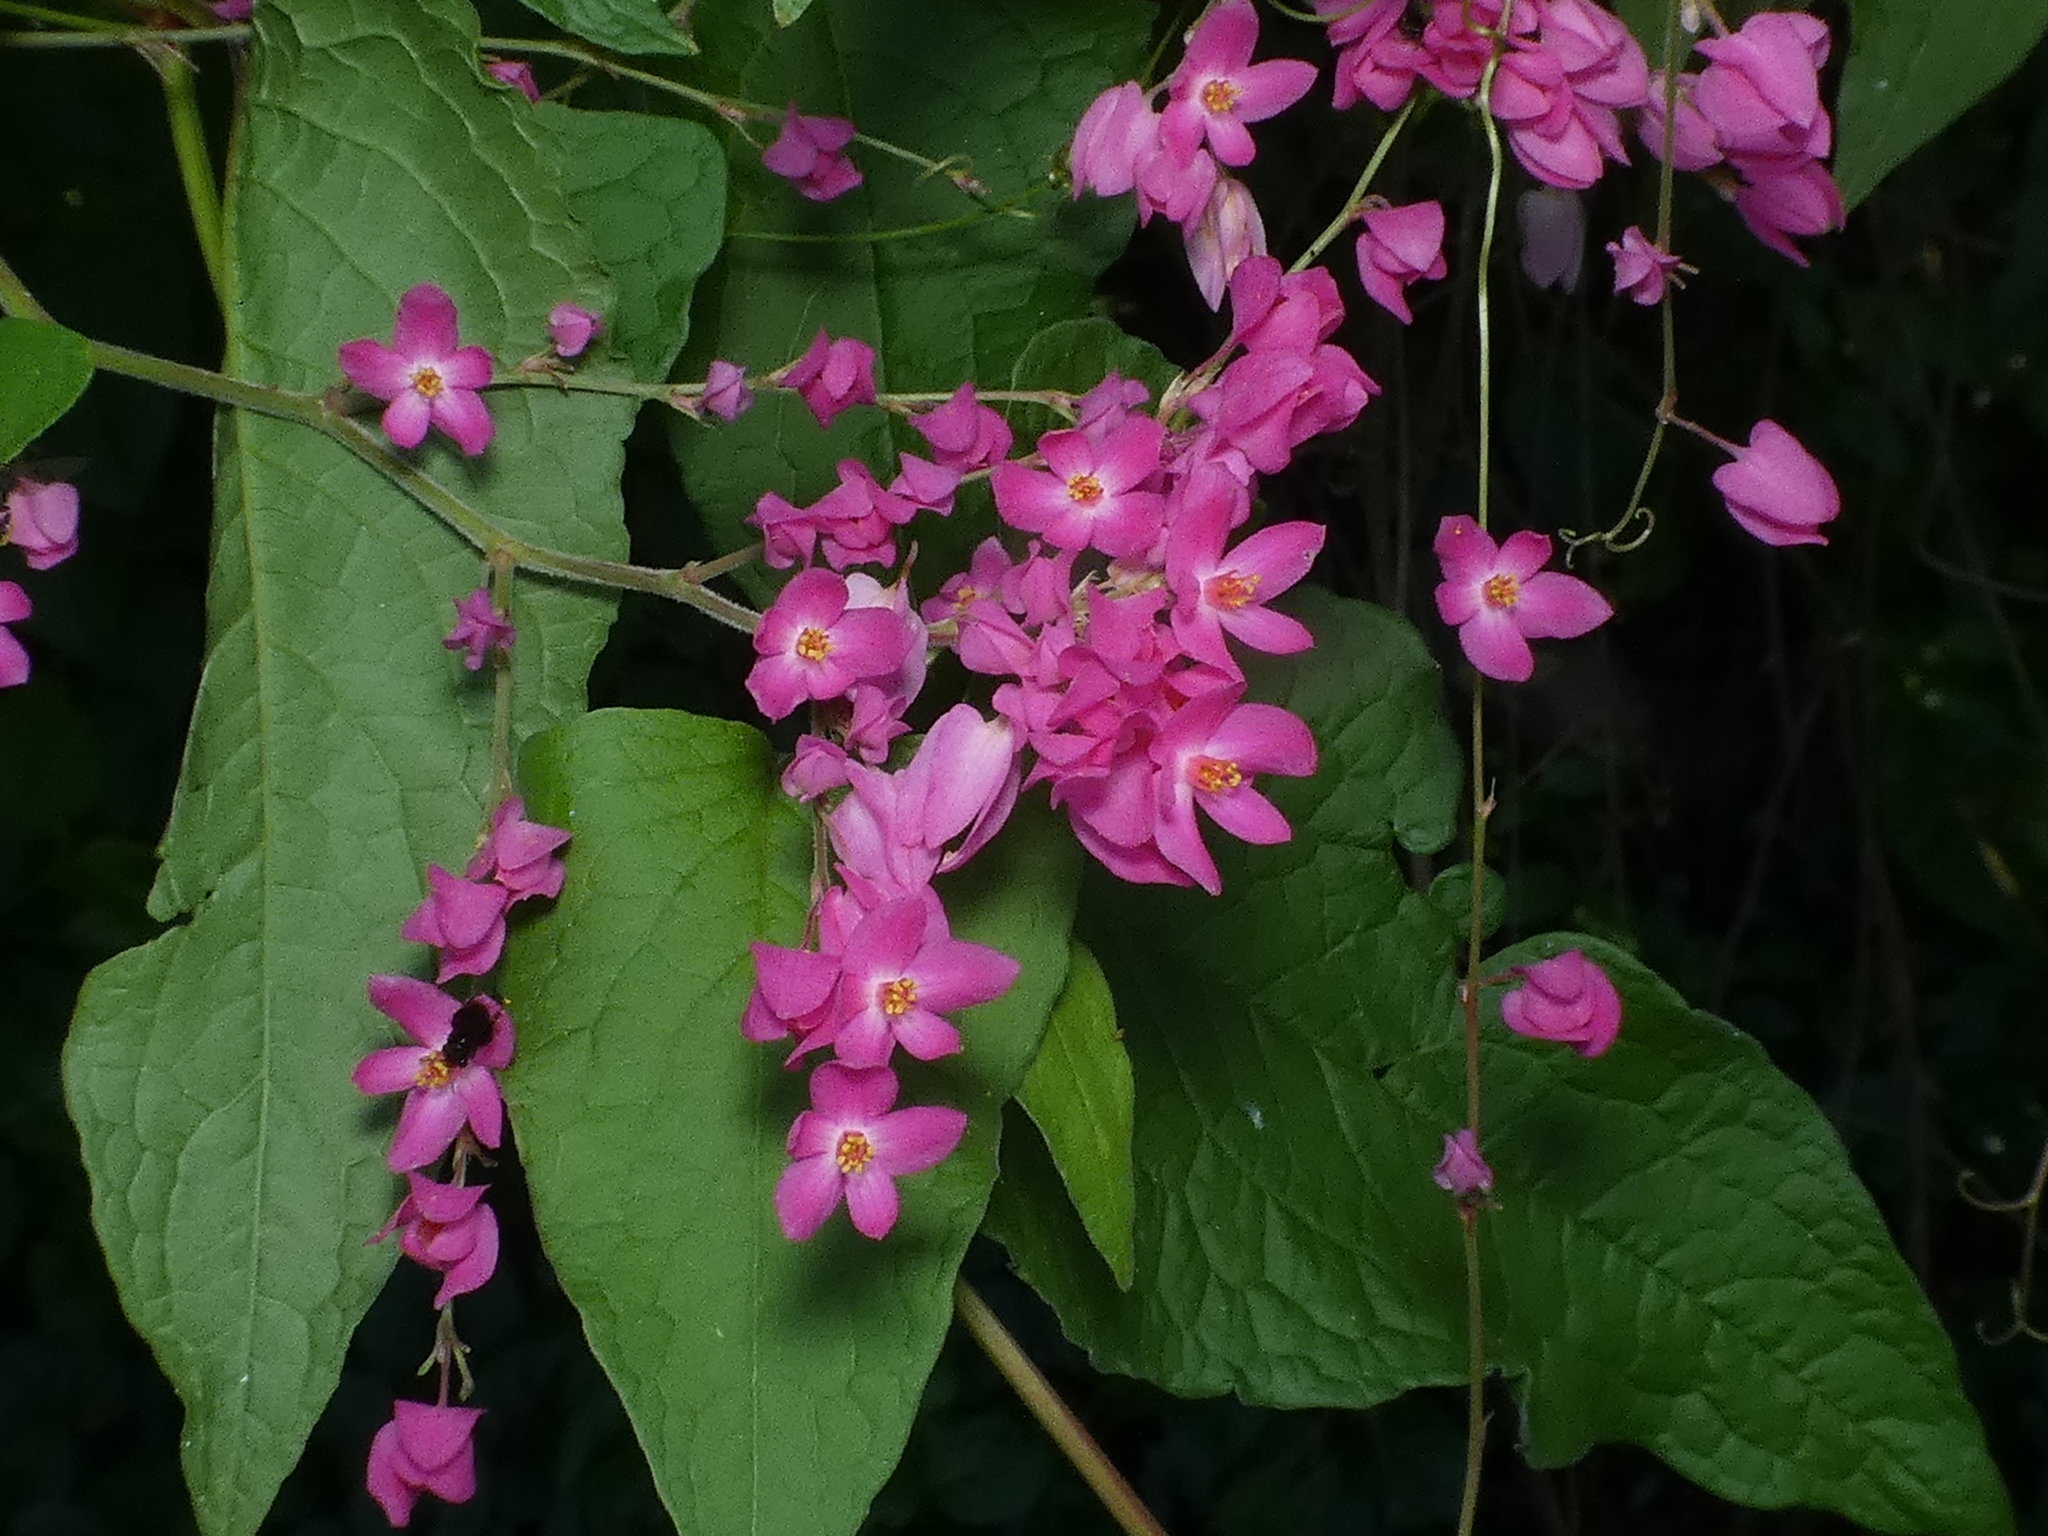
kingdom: Plantae
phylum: Tracheophyta
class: Magnoliopsida
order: Caryophyllales
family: Polygonaceae
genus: Antigonon
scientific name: Antigonon leptopus
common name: Coral vine
